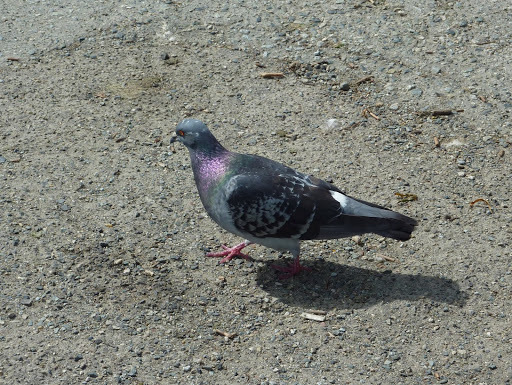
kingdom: Animalia
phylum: Chordata
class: Aves
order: Columbiformes
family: Columbidae
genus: Columba
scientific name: Columba livia
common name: Rock pigeon
